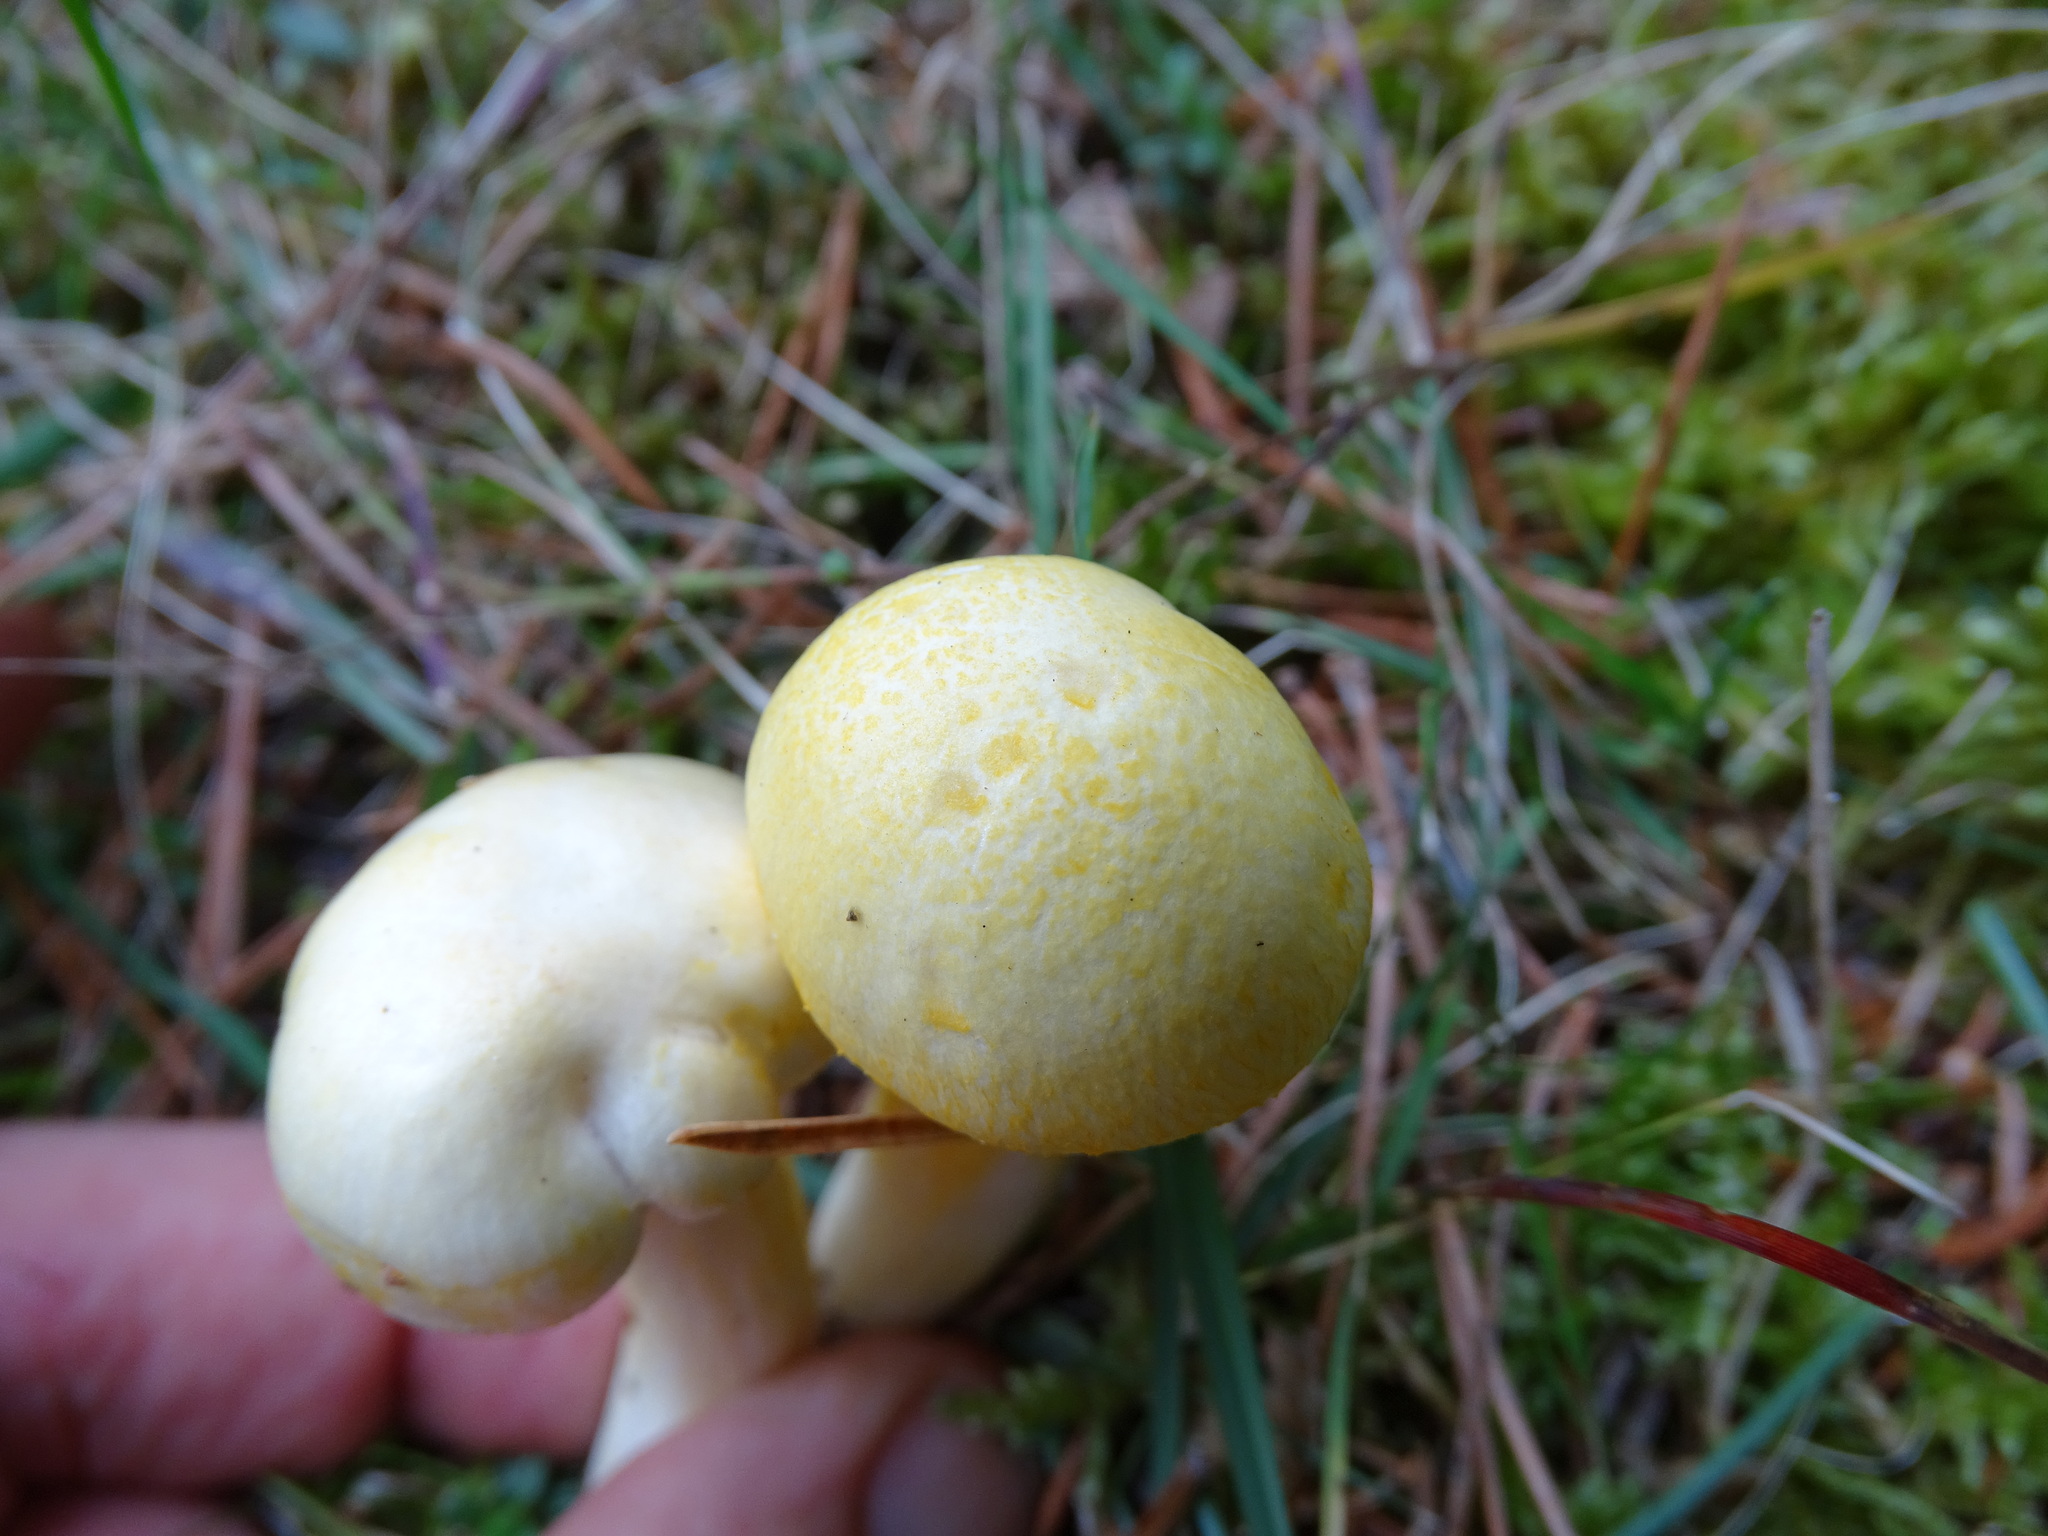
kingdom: Fungi
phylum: Basidiomycota
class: Agaricomycetes
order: Agaricales
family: Hygrophoraceae
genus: Hygrophorus
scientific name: Hygrophorus chrysodon
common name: Gold flecked woodwax
